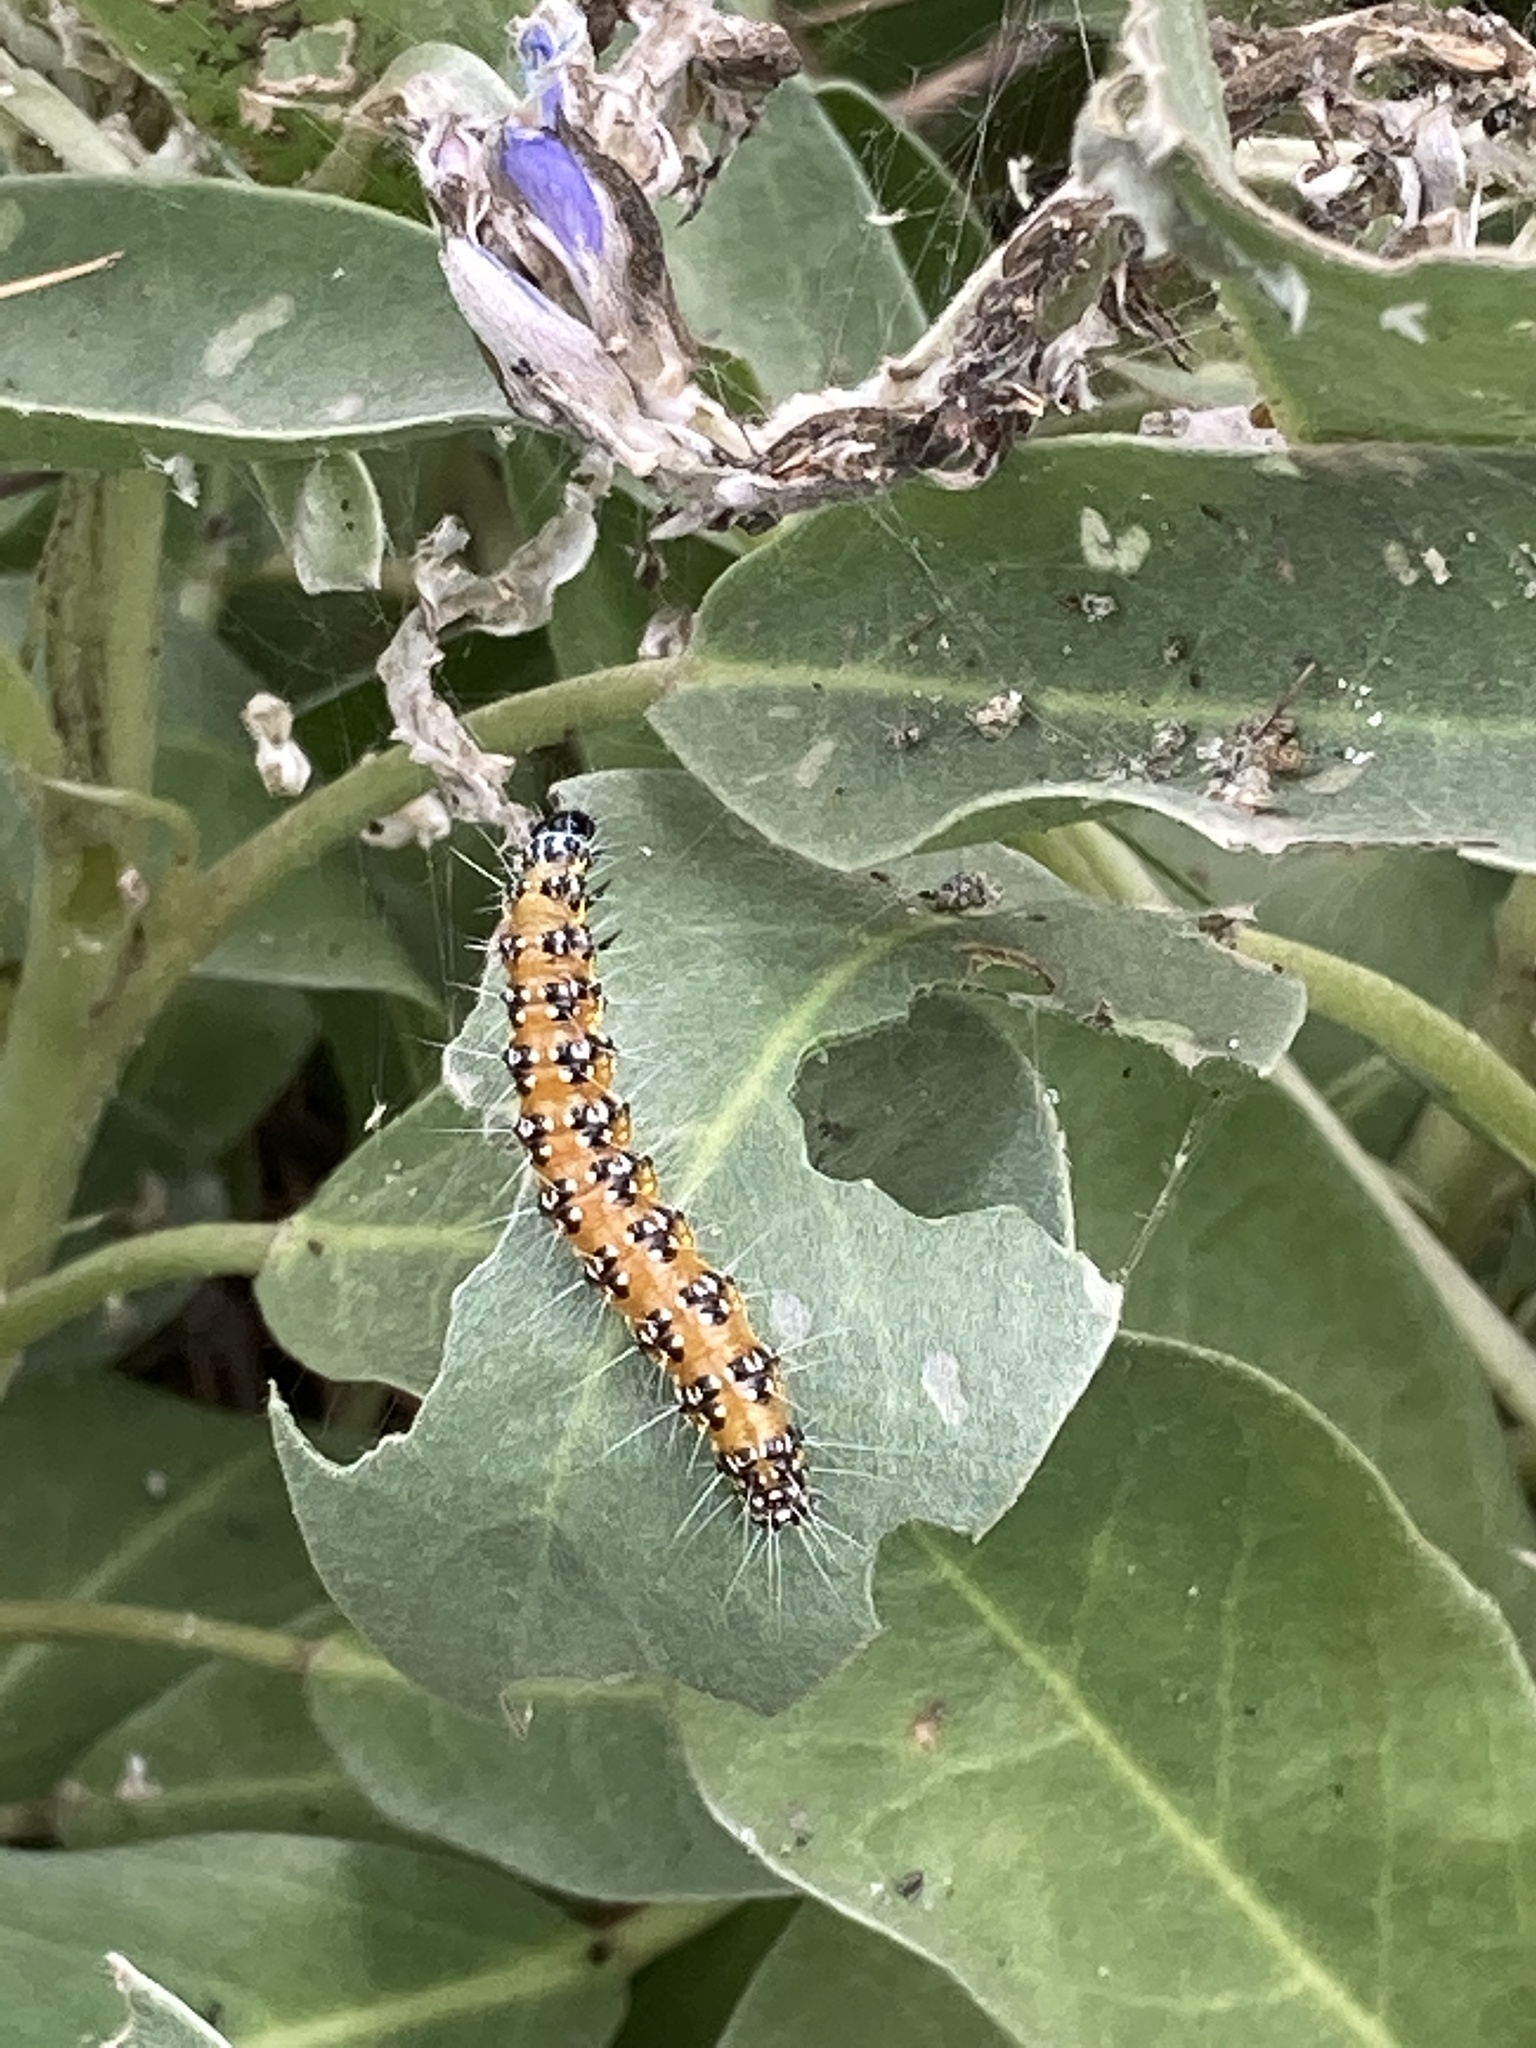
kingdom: Animalia
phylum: Arthropoda
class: Insecta
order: Lepidoptera
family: Crambidae
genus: Uresiphita
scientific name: Uresiphita reversalis
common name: Genista broom moth
